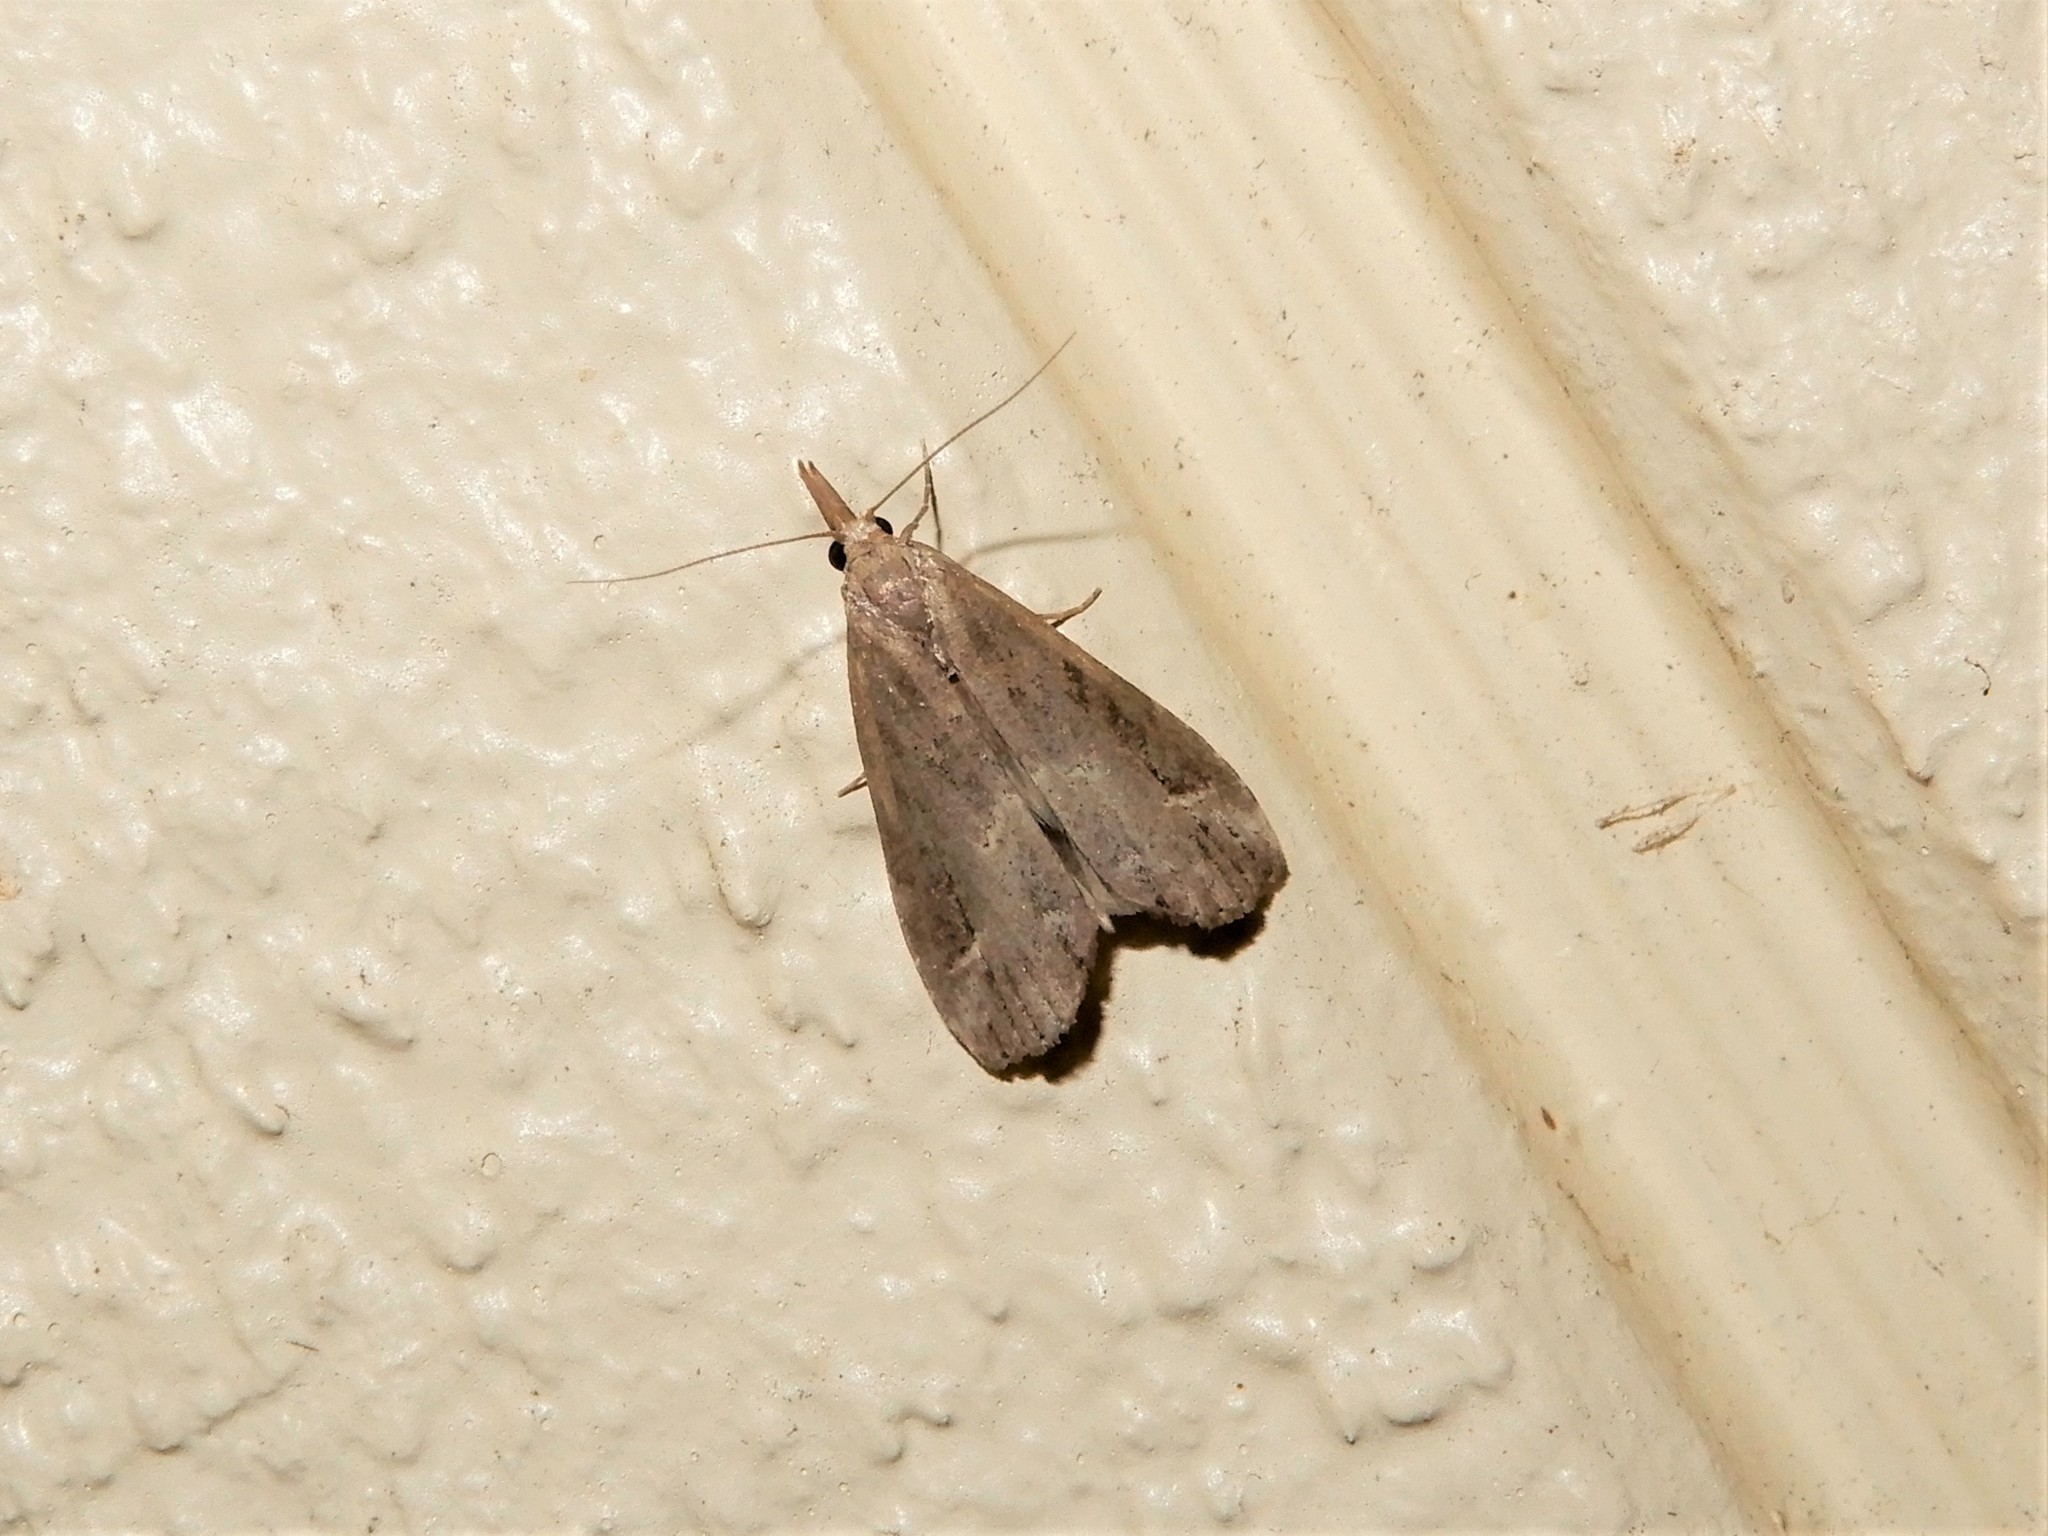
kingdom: Animalia
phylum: Arthropoda
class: Insecta
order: Lepidoptera
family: Erebidae
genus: Schrankia
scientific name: Schrankia costaestrigalis
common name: Pinion-streaked snout
